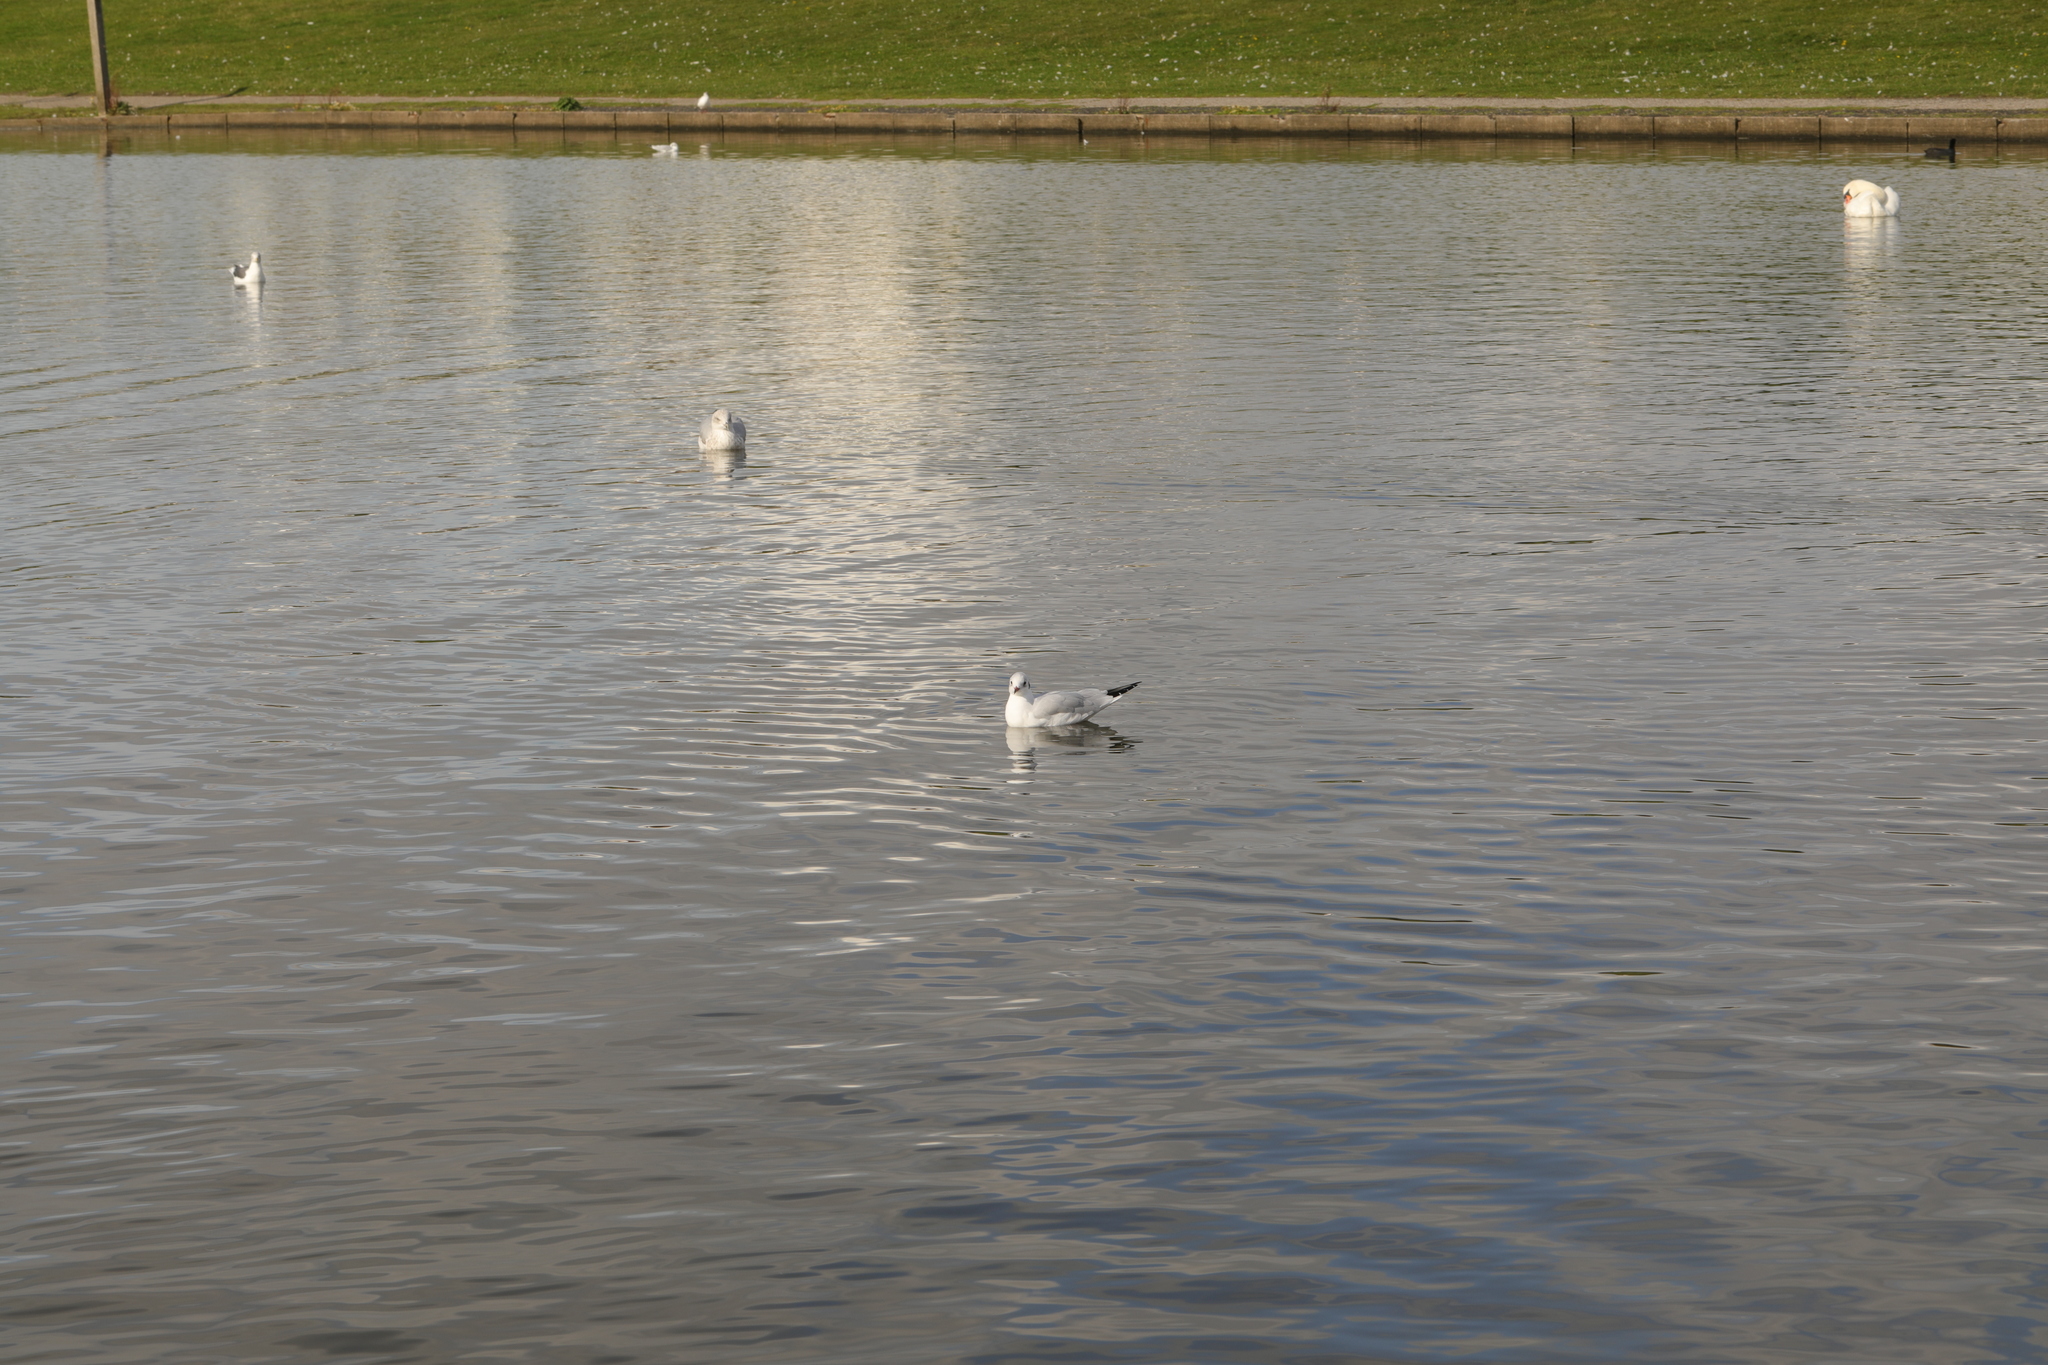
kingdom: Animalia
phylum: Chordata
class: Aves
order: Charadriiformes
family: Laridae
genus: Chroicocephalus
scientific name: Chroicocephalus ridibundus
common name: Black-headed gull
